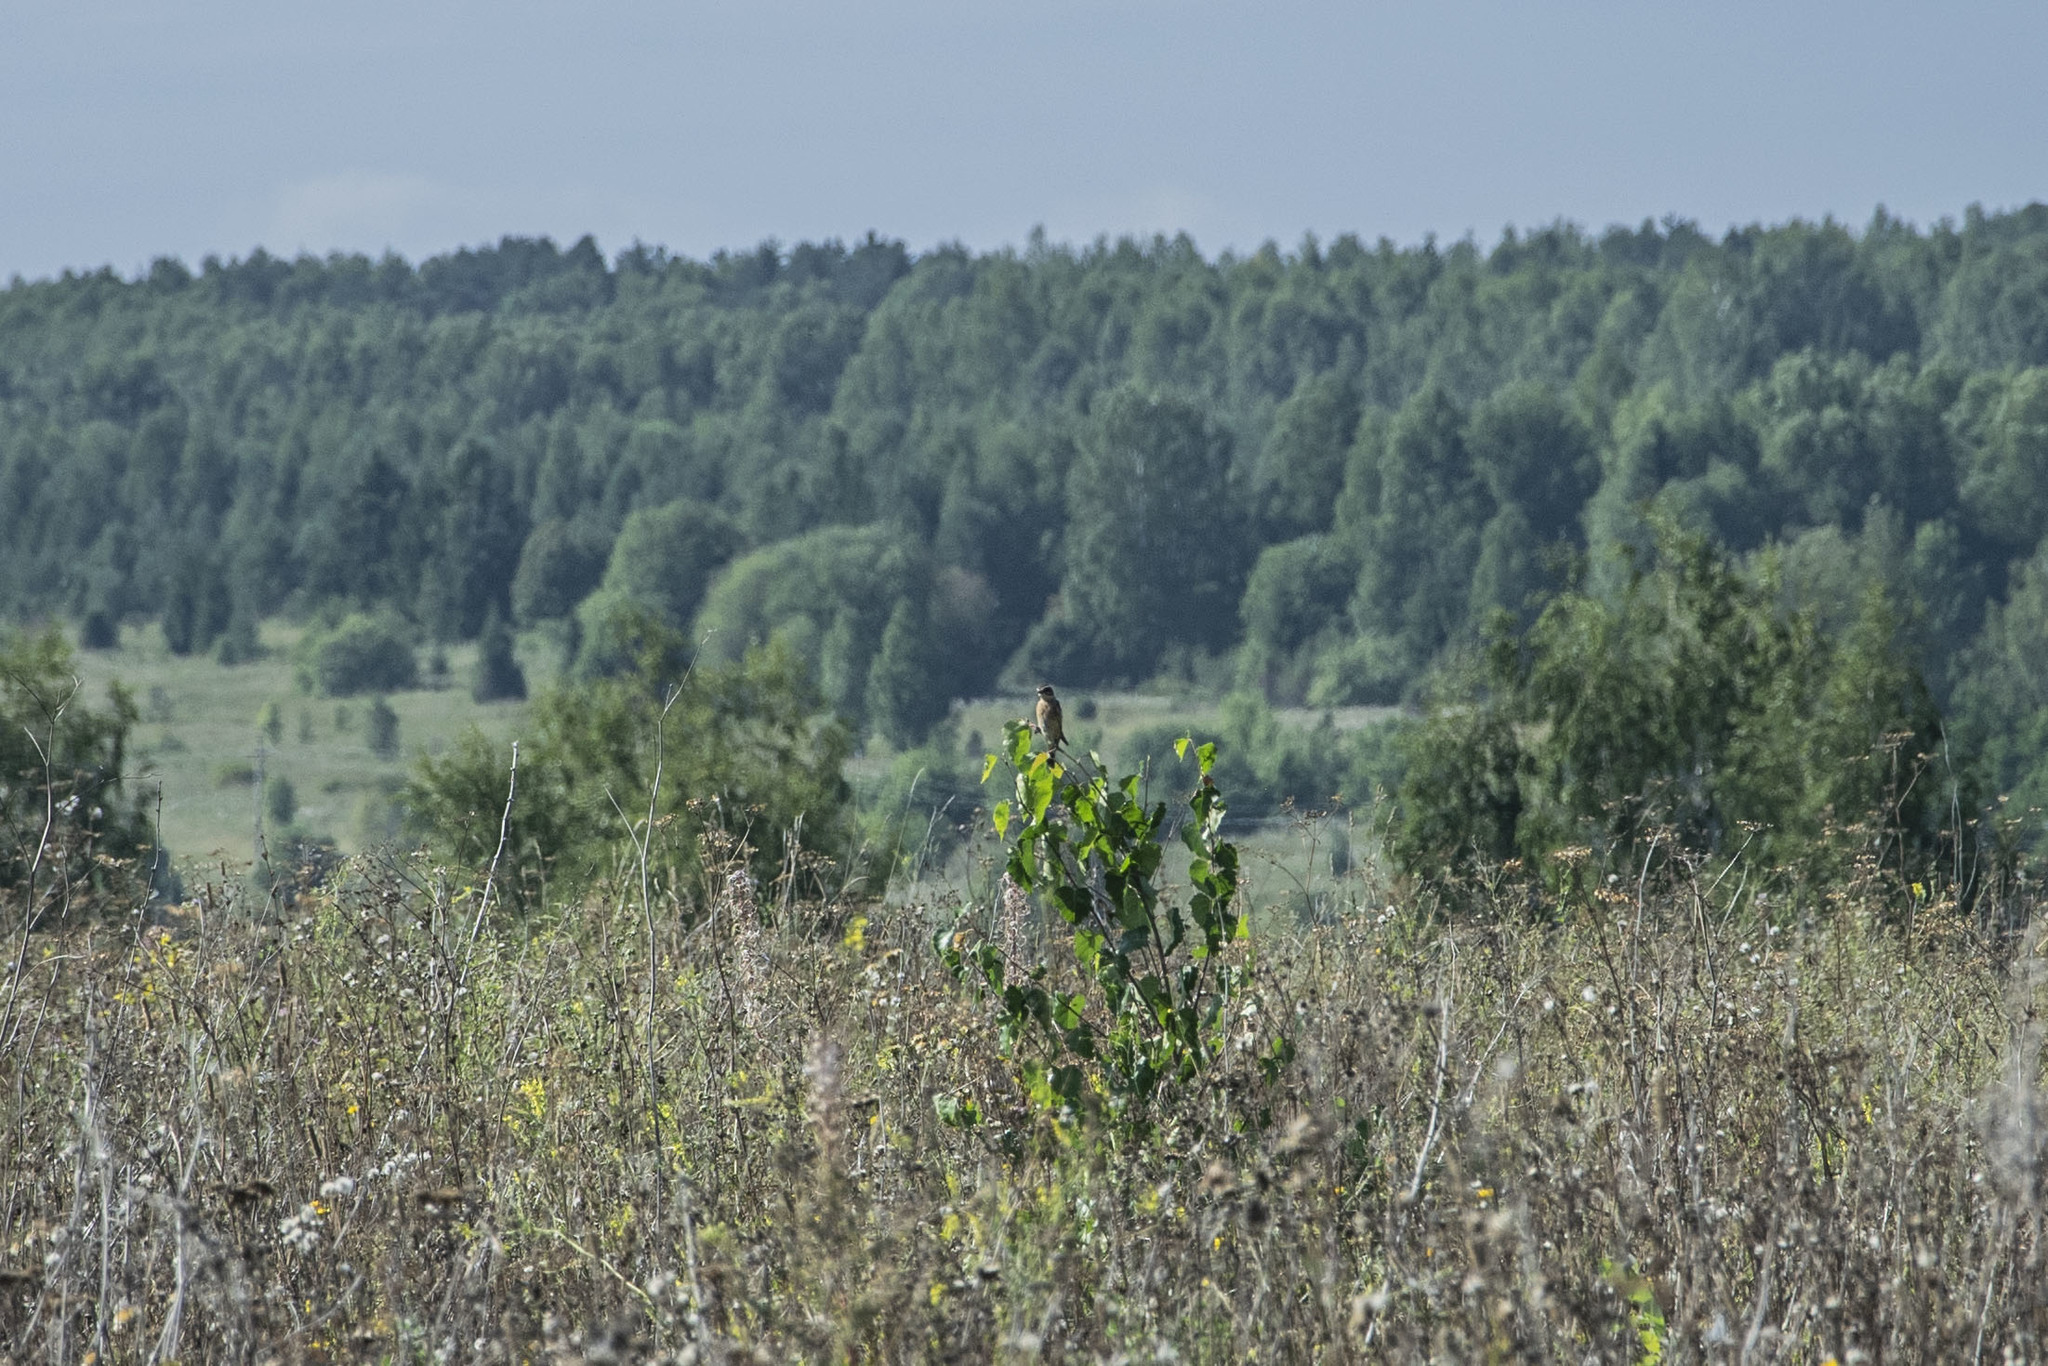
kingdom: Animalia
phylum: Chordata
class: Aves
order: Passeriformes
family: Muscicapidae
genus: Saxicola
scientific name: Saxicola rubetra
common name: Whinchat
